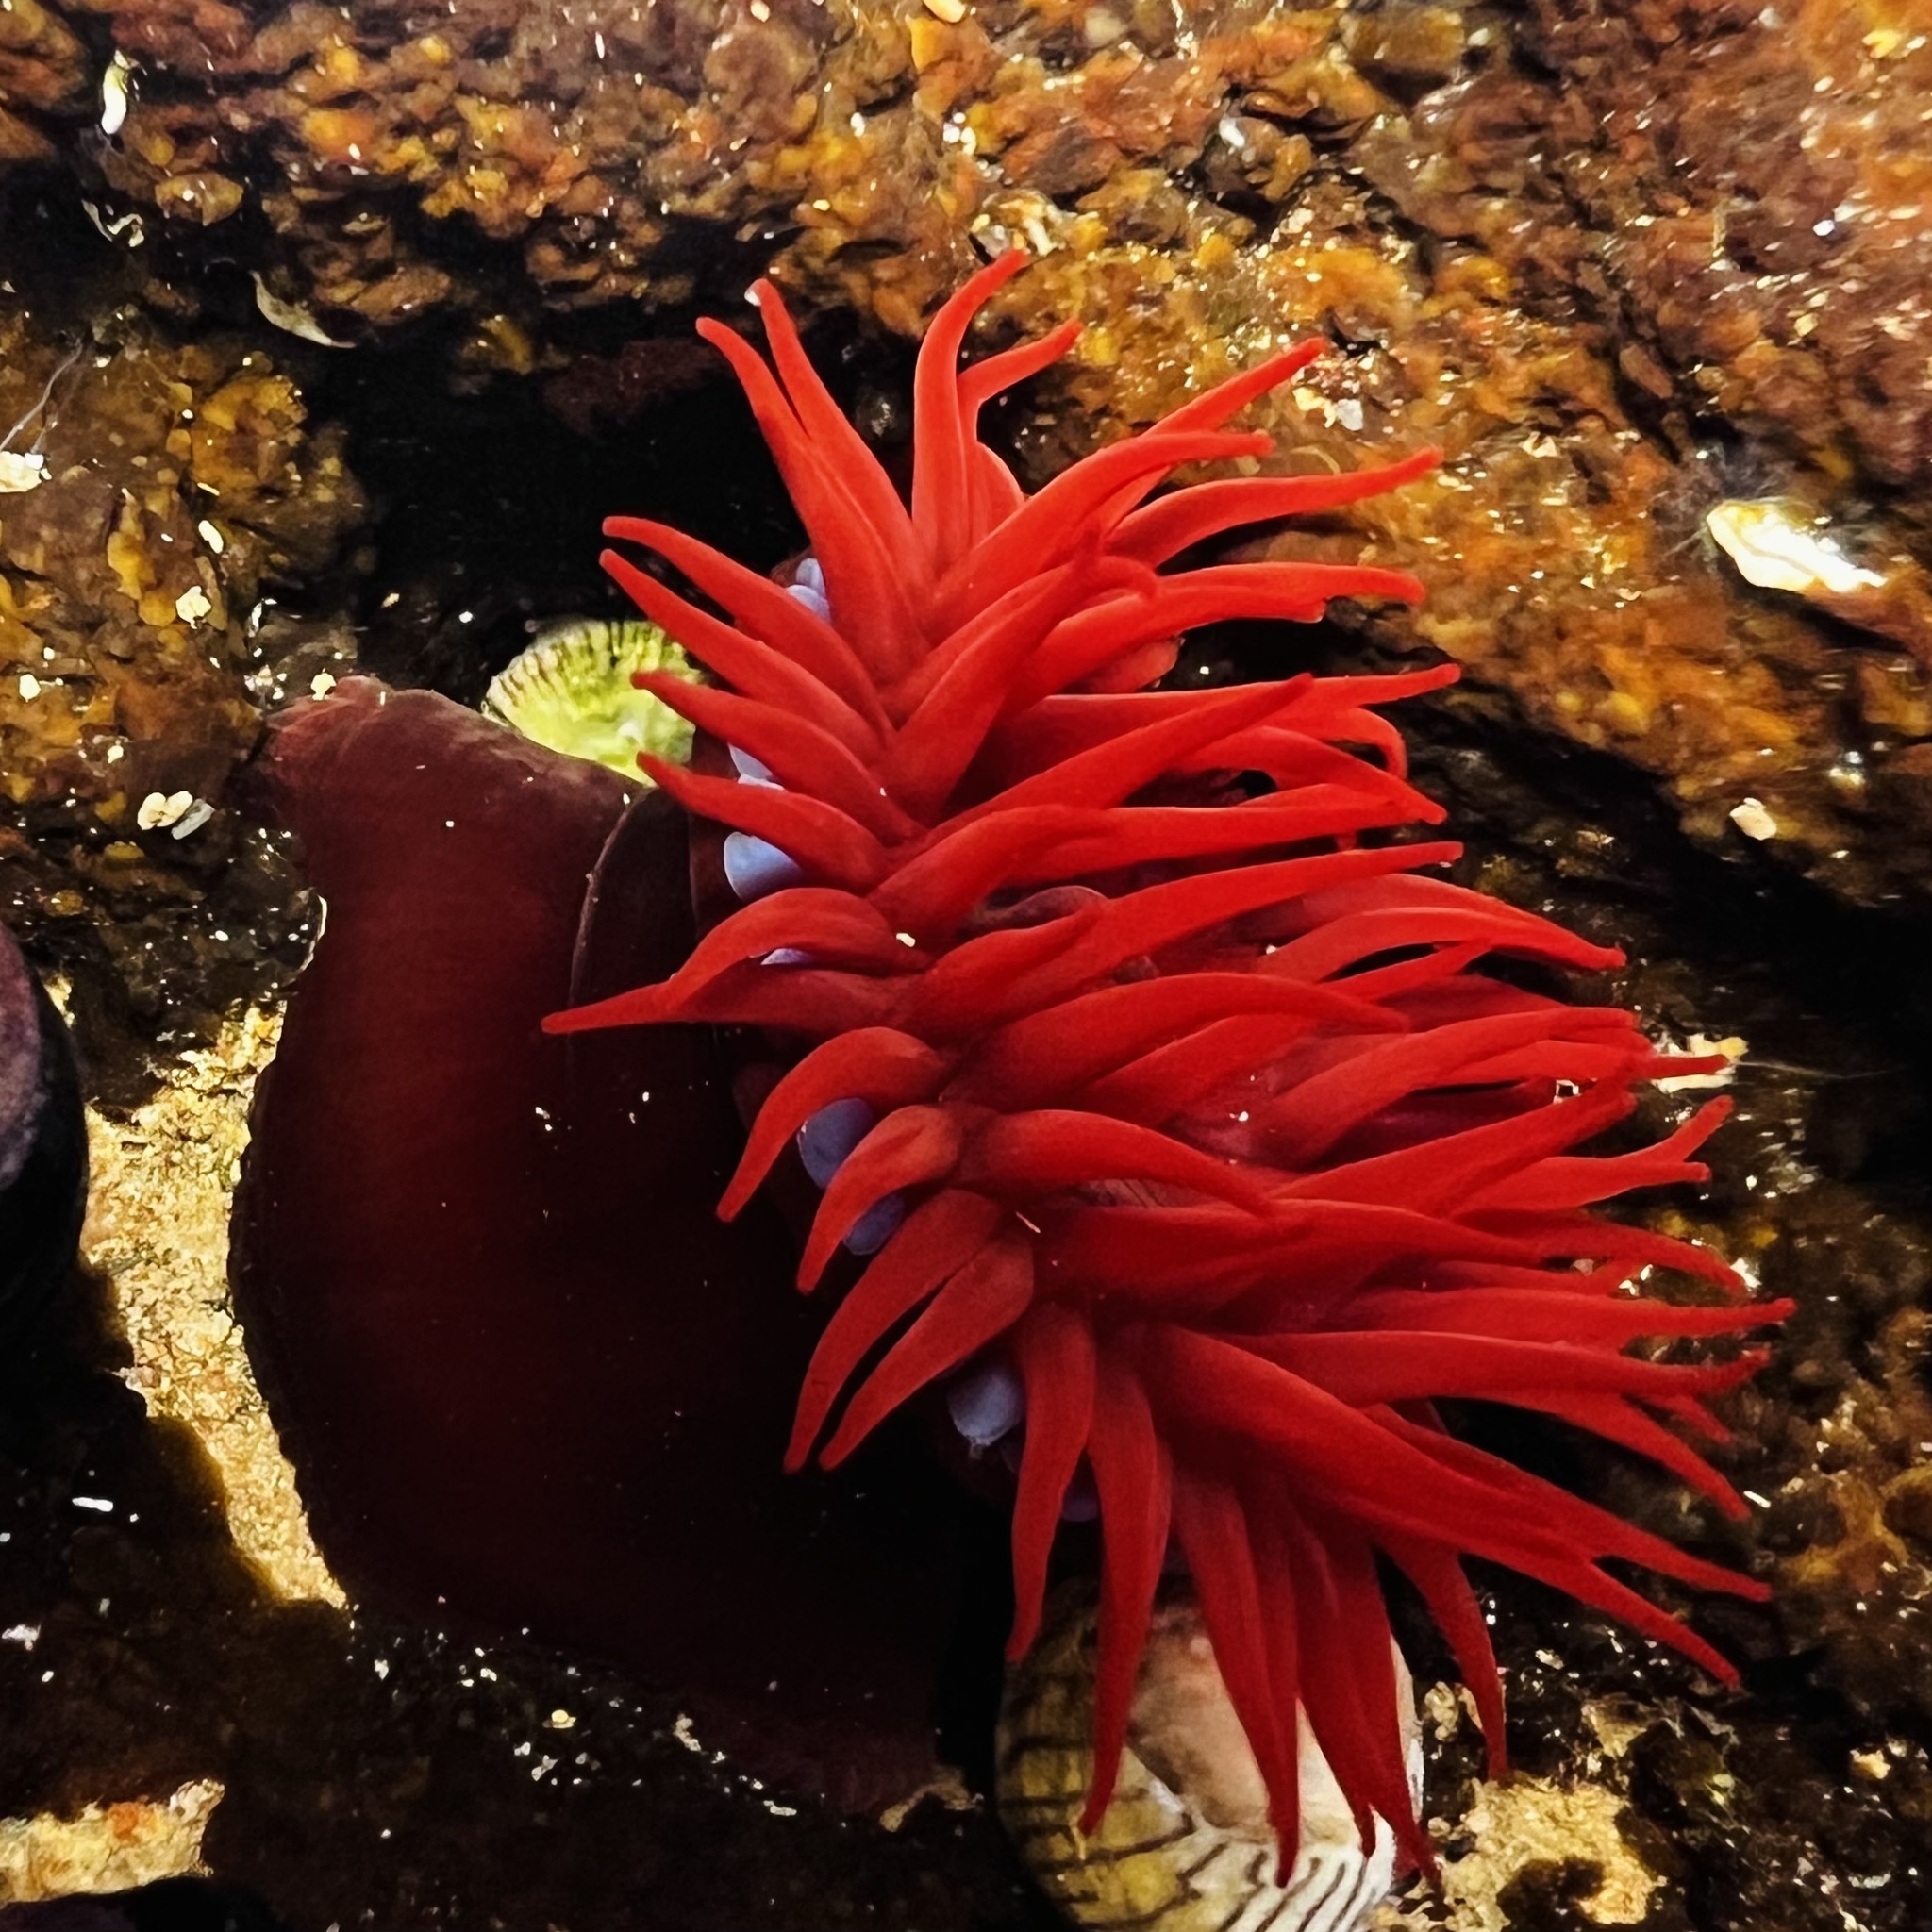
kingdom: Animalia
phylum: Cnidaria
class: Anthozoa
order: Actiniaria
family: Actiniidae
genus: Actinia
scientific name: Actinia tenebrosa
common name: Waratah anemone
